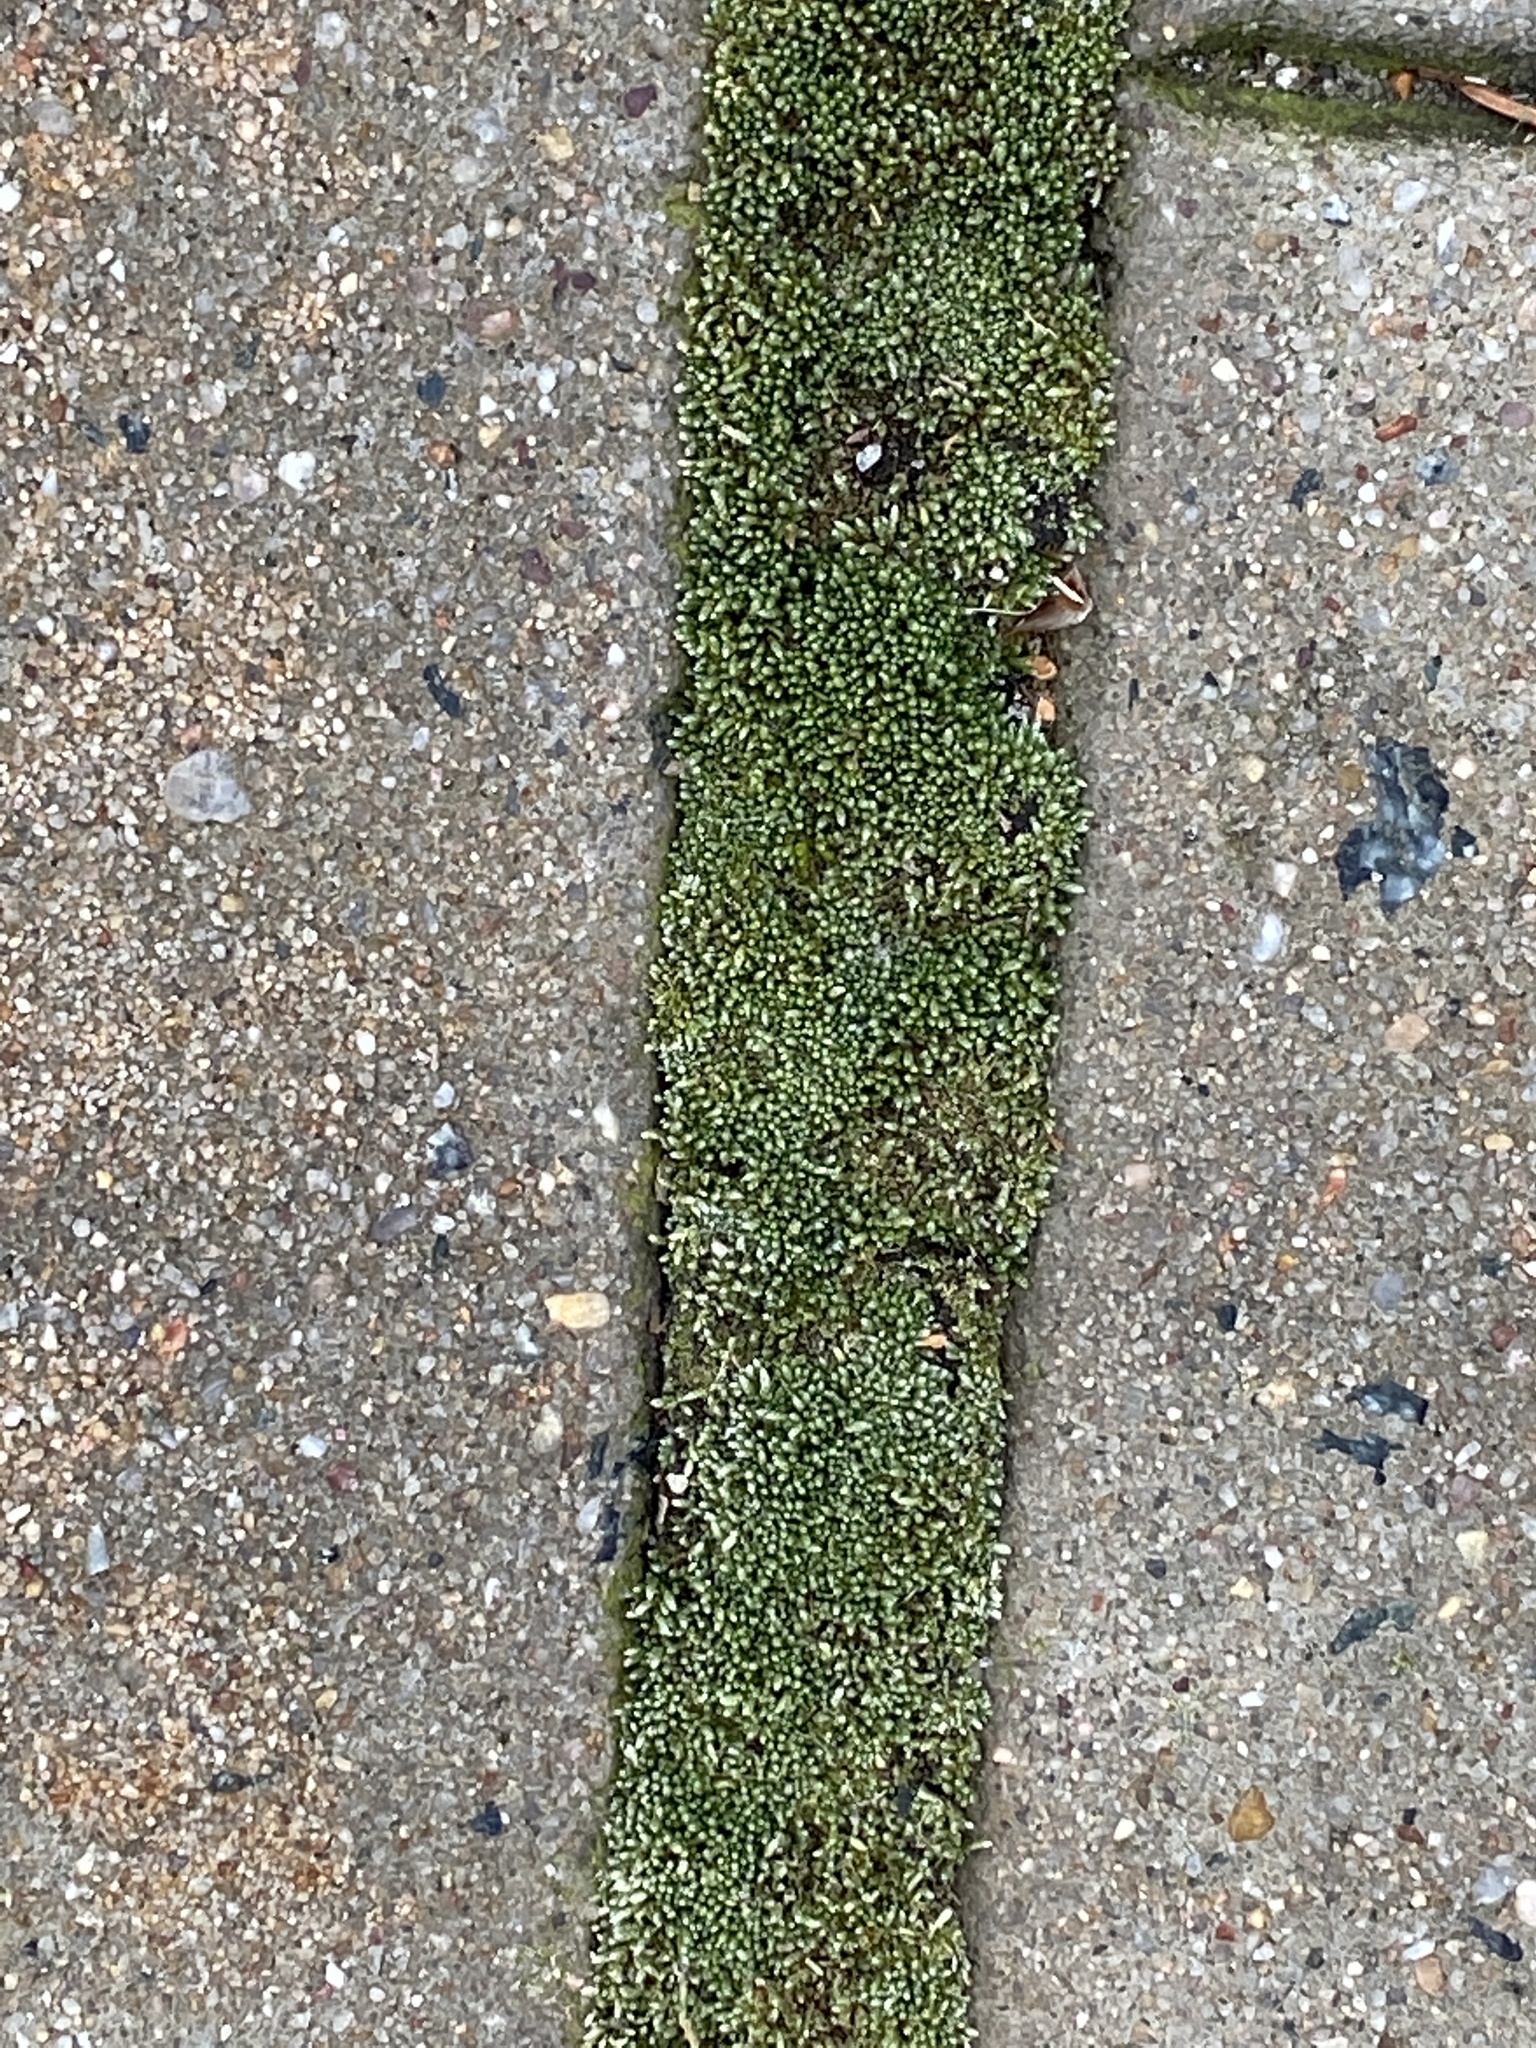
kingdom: Plantae
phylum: Bryophyta
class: Bryopsida
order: Bryales
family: Bryaceae
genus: Bryum
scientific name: Bryum argenteum
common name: Silver-moss
